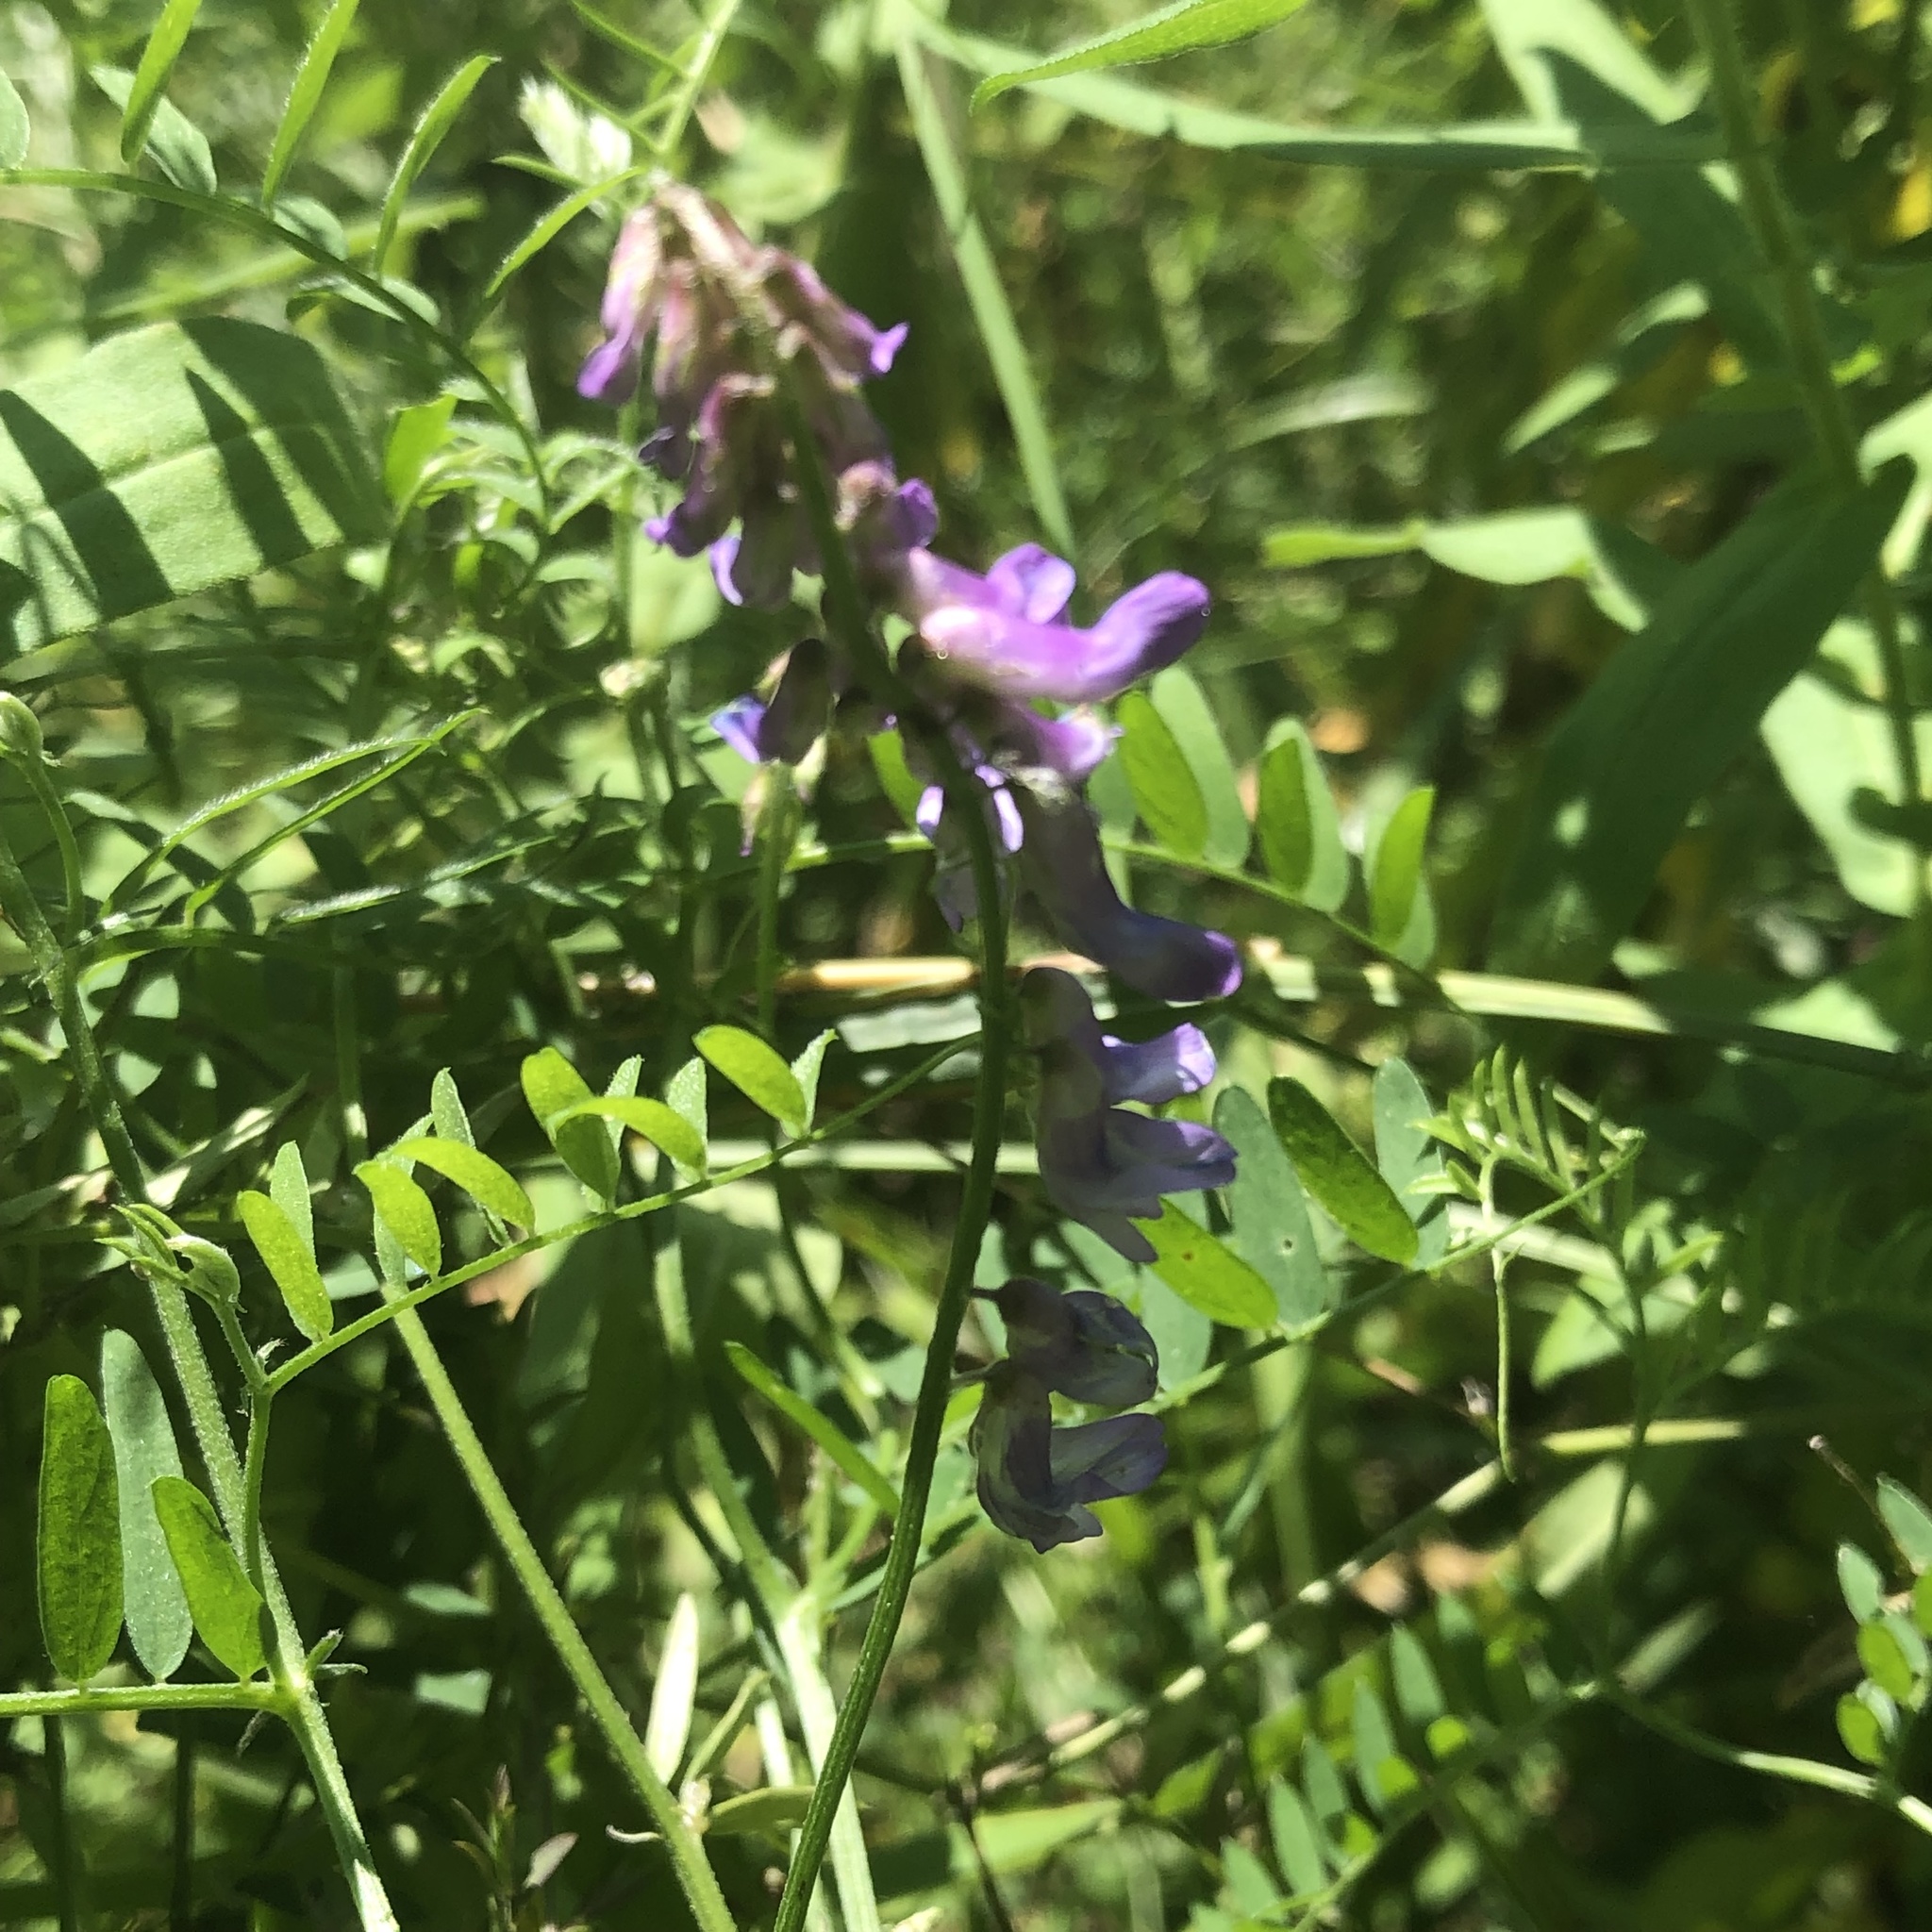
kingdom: Plantae
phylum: Tracheophyta
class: Magnoliopsida
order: Fabales
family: Fabaceae
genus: Vicia
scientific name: Vicia cracca
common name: Bird vetch
